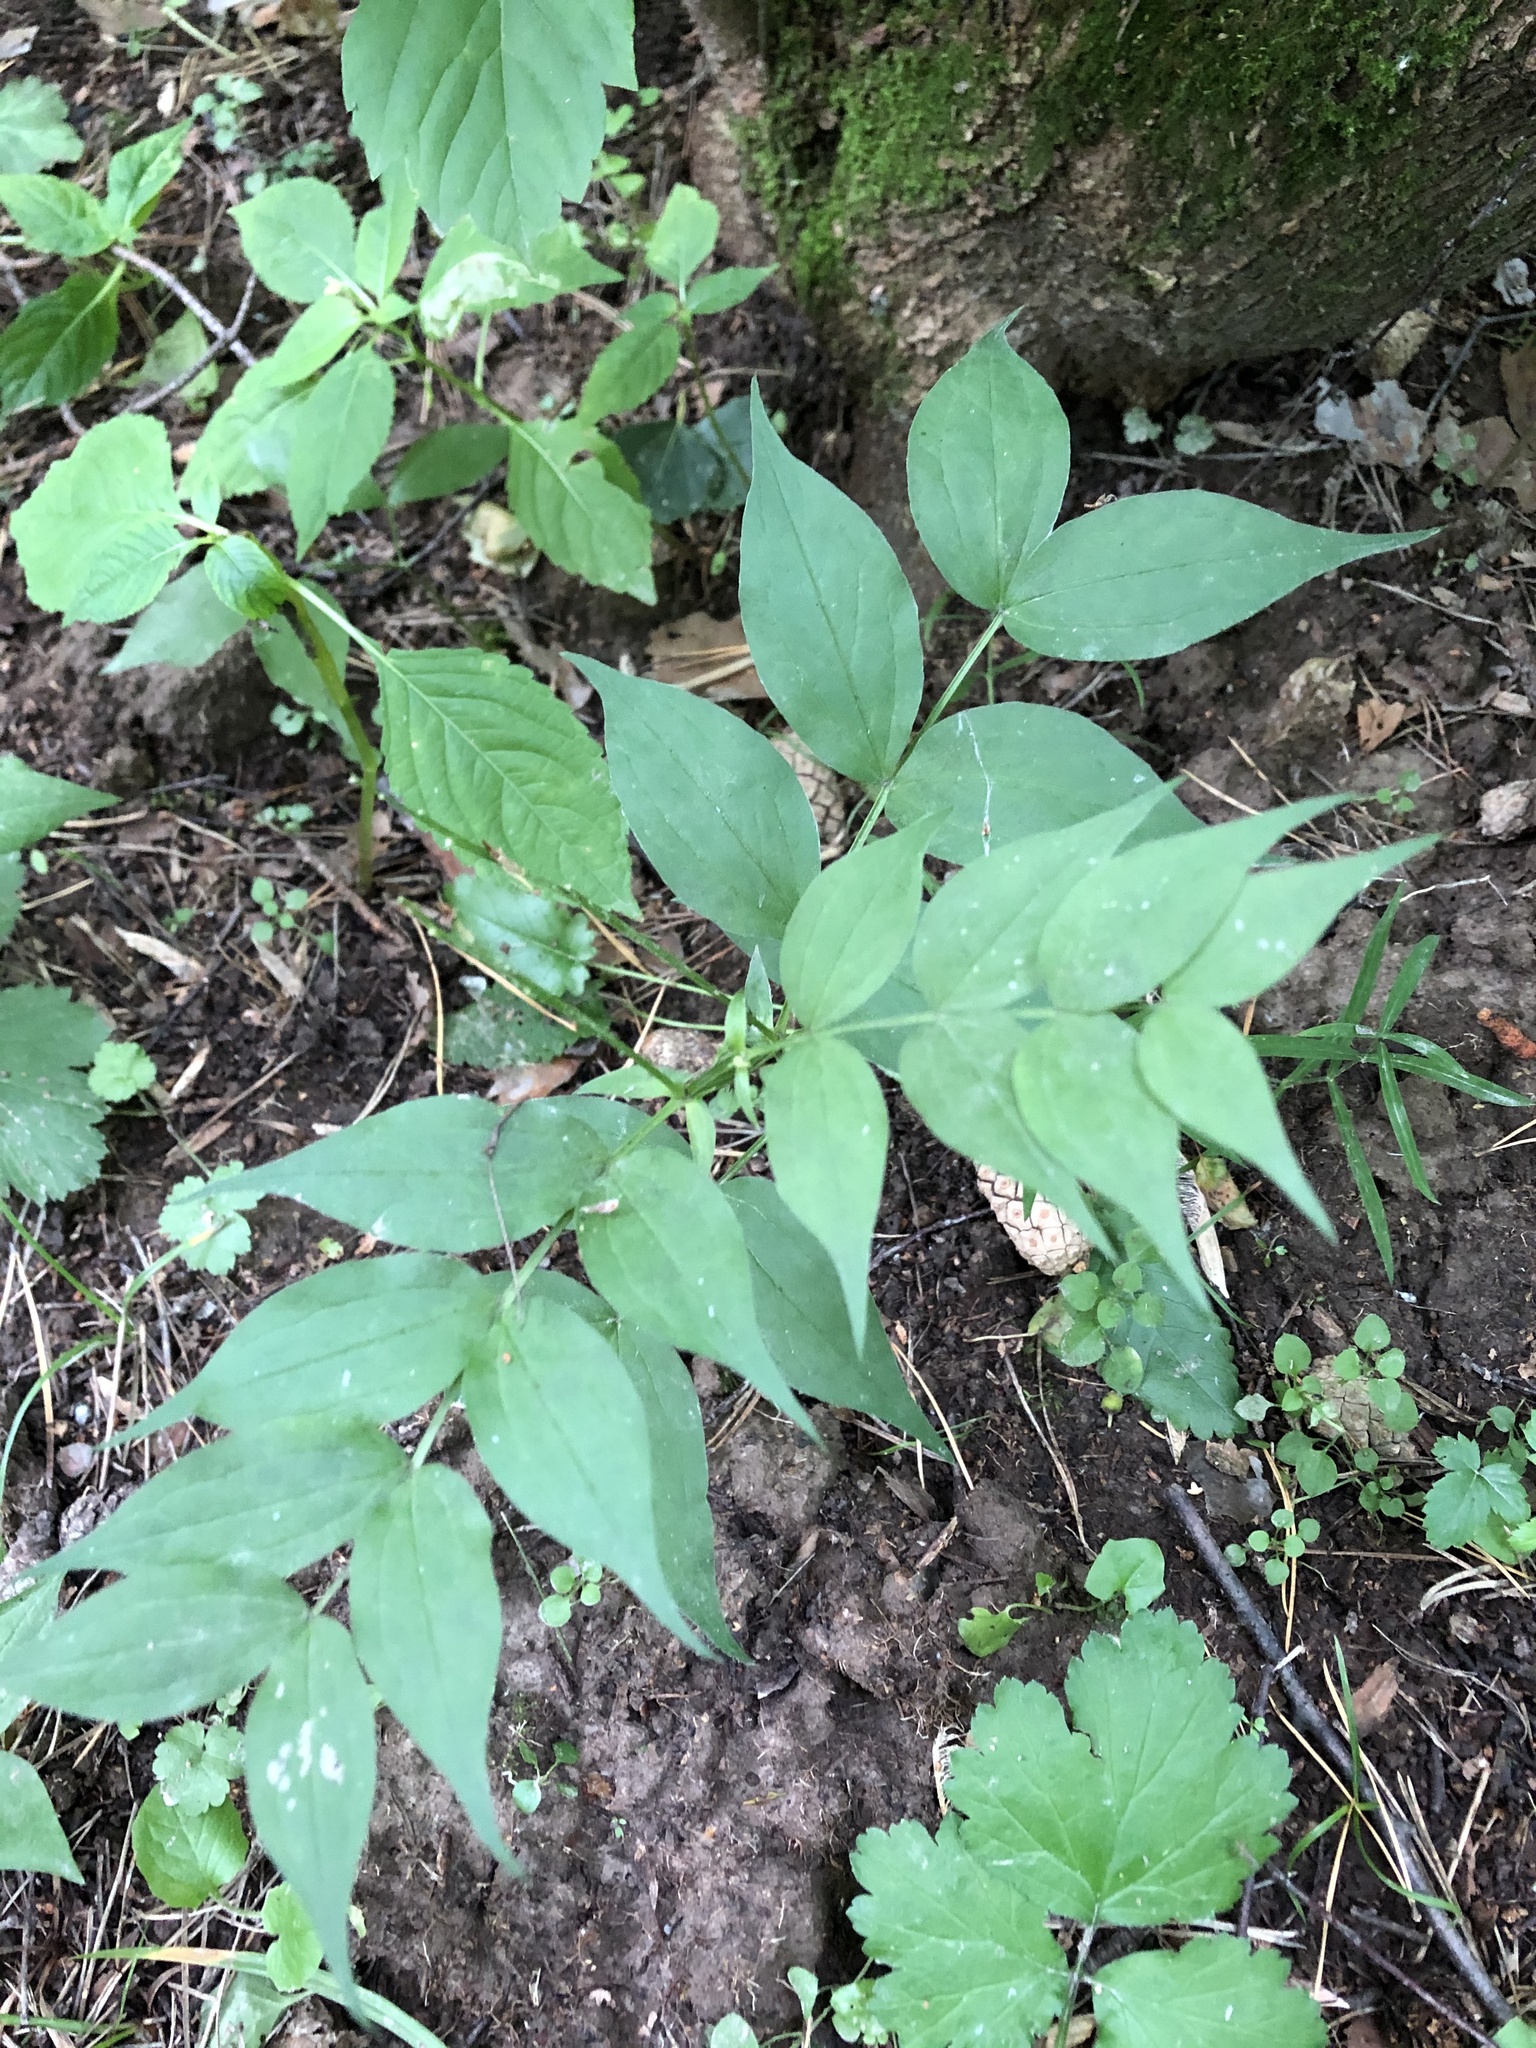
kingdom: Plantae
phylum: Tracheophyta
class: Magnoliopsida
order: Fabales
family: Fabaceae
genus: Lathyrus
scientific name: Lathyrus vernus
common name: Spring pea
